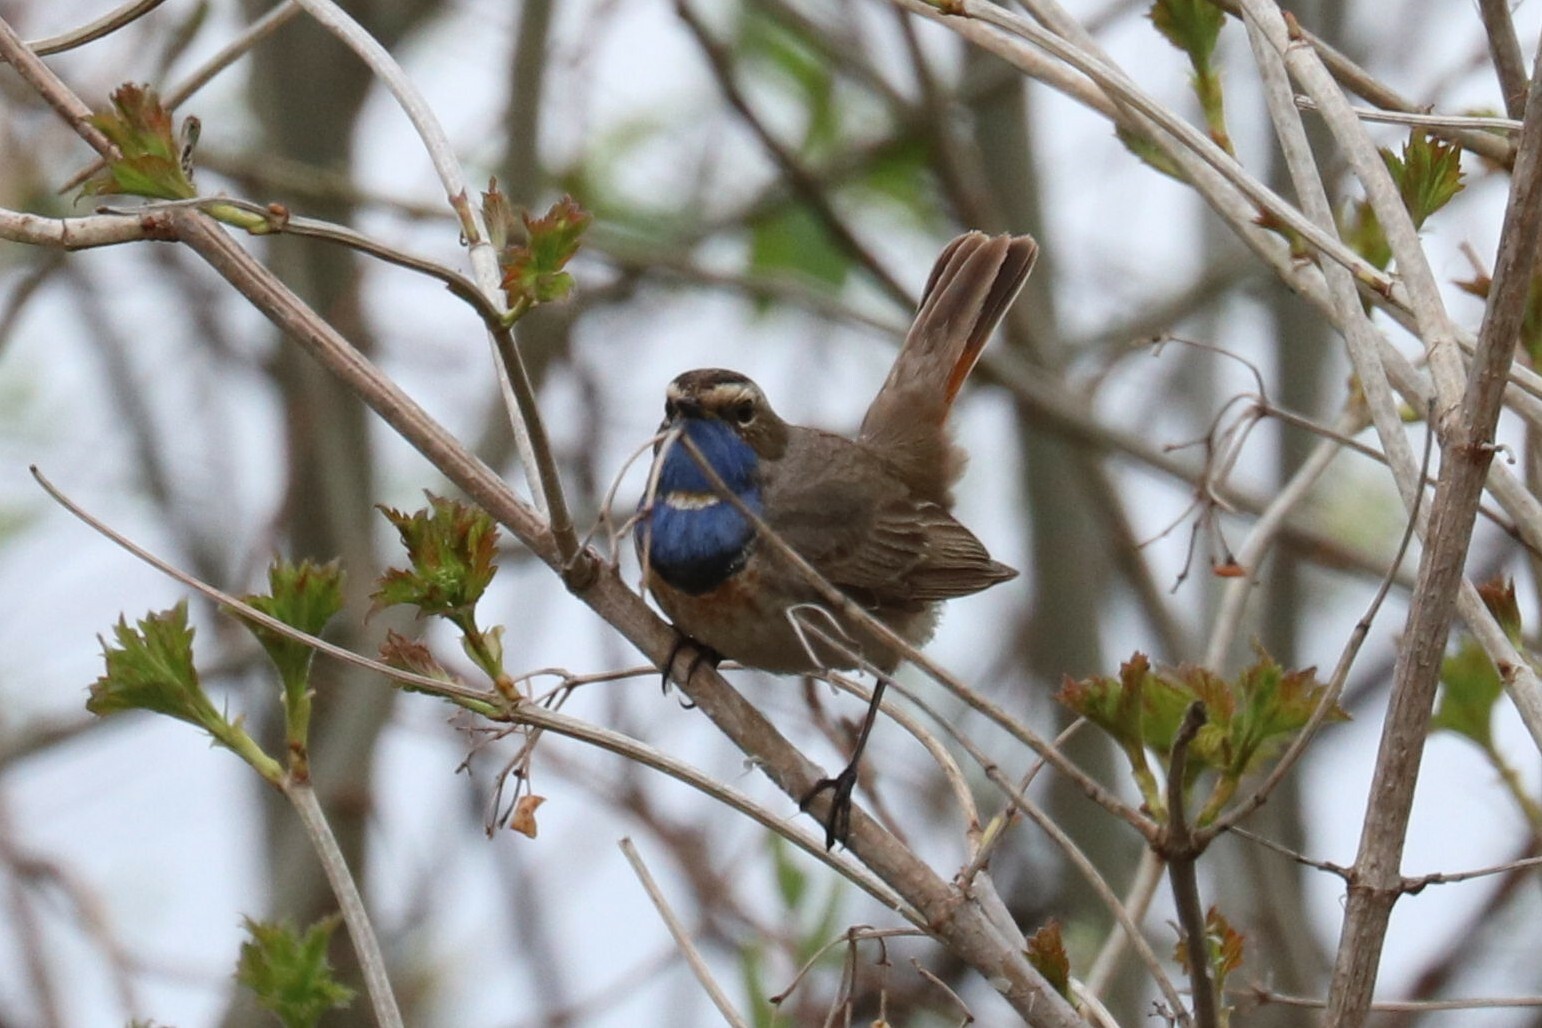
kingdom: Animalia
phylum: Chordata
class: Aves
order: Passeriformes
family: Muscicapidae
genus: Luscinia
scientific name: Luscinia svecica
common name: Bluethroat
